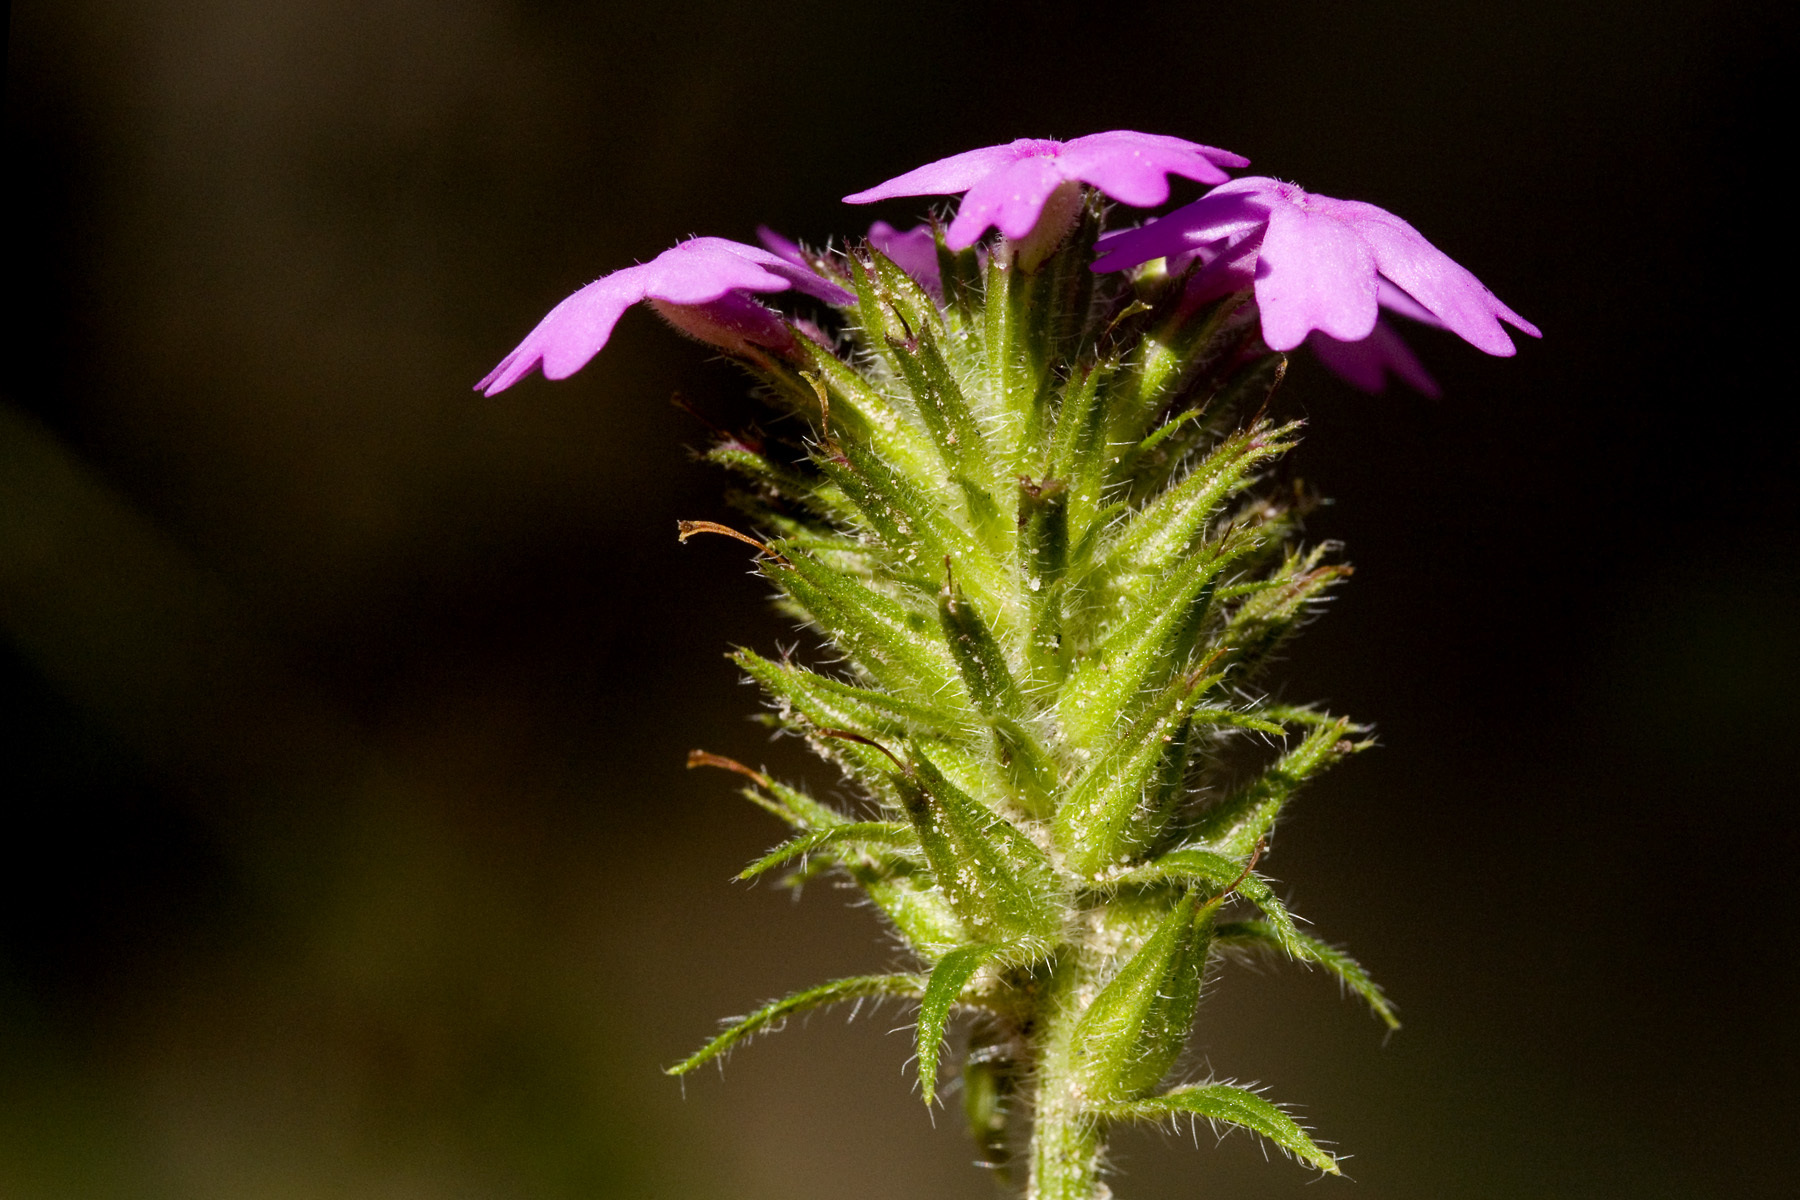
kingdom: Plantae
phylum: Tracheophyta
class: Magnoliopsida
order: Lamiales
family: Verbenaceae
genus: Verbena
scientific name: Verbena chiricahensis
